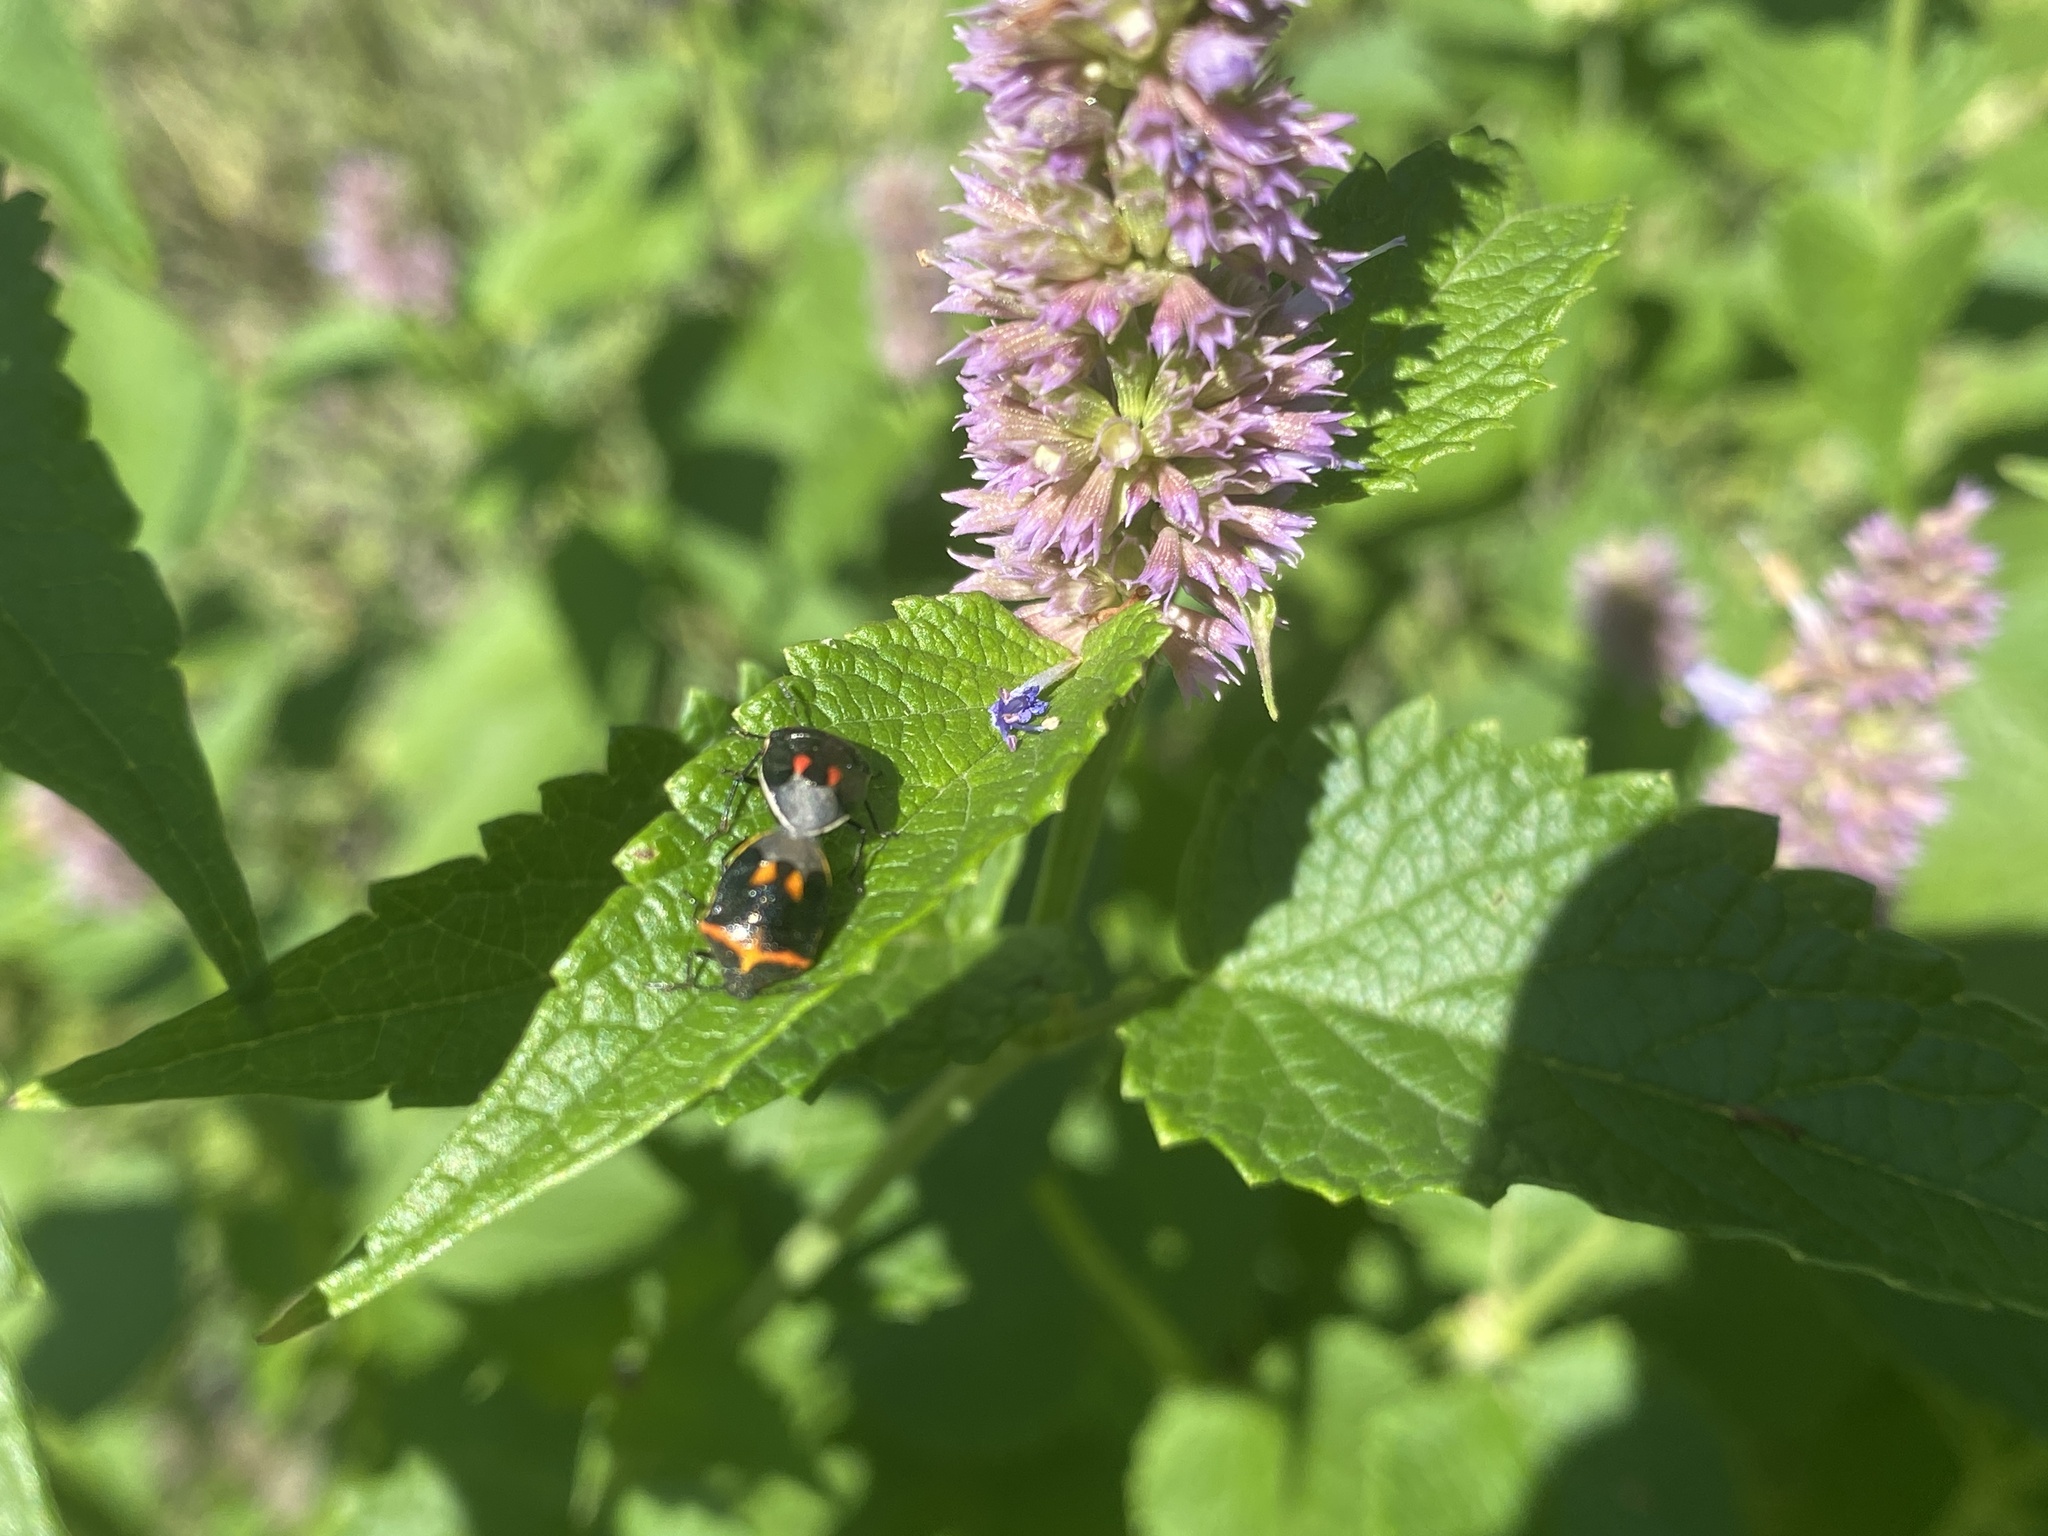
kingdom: Animalia
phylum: Arthropoda
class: Insecta
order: Hemiptera
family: Pentatomidae
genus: Cosmopepla
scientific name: Cosmopepla lintneriana
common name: Twice-stabbed stink bug
